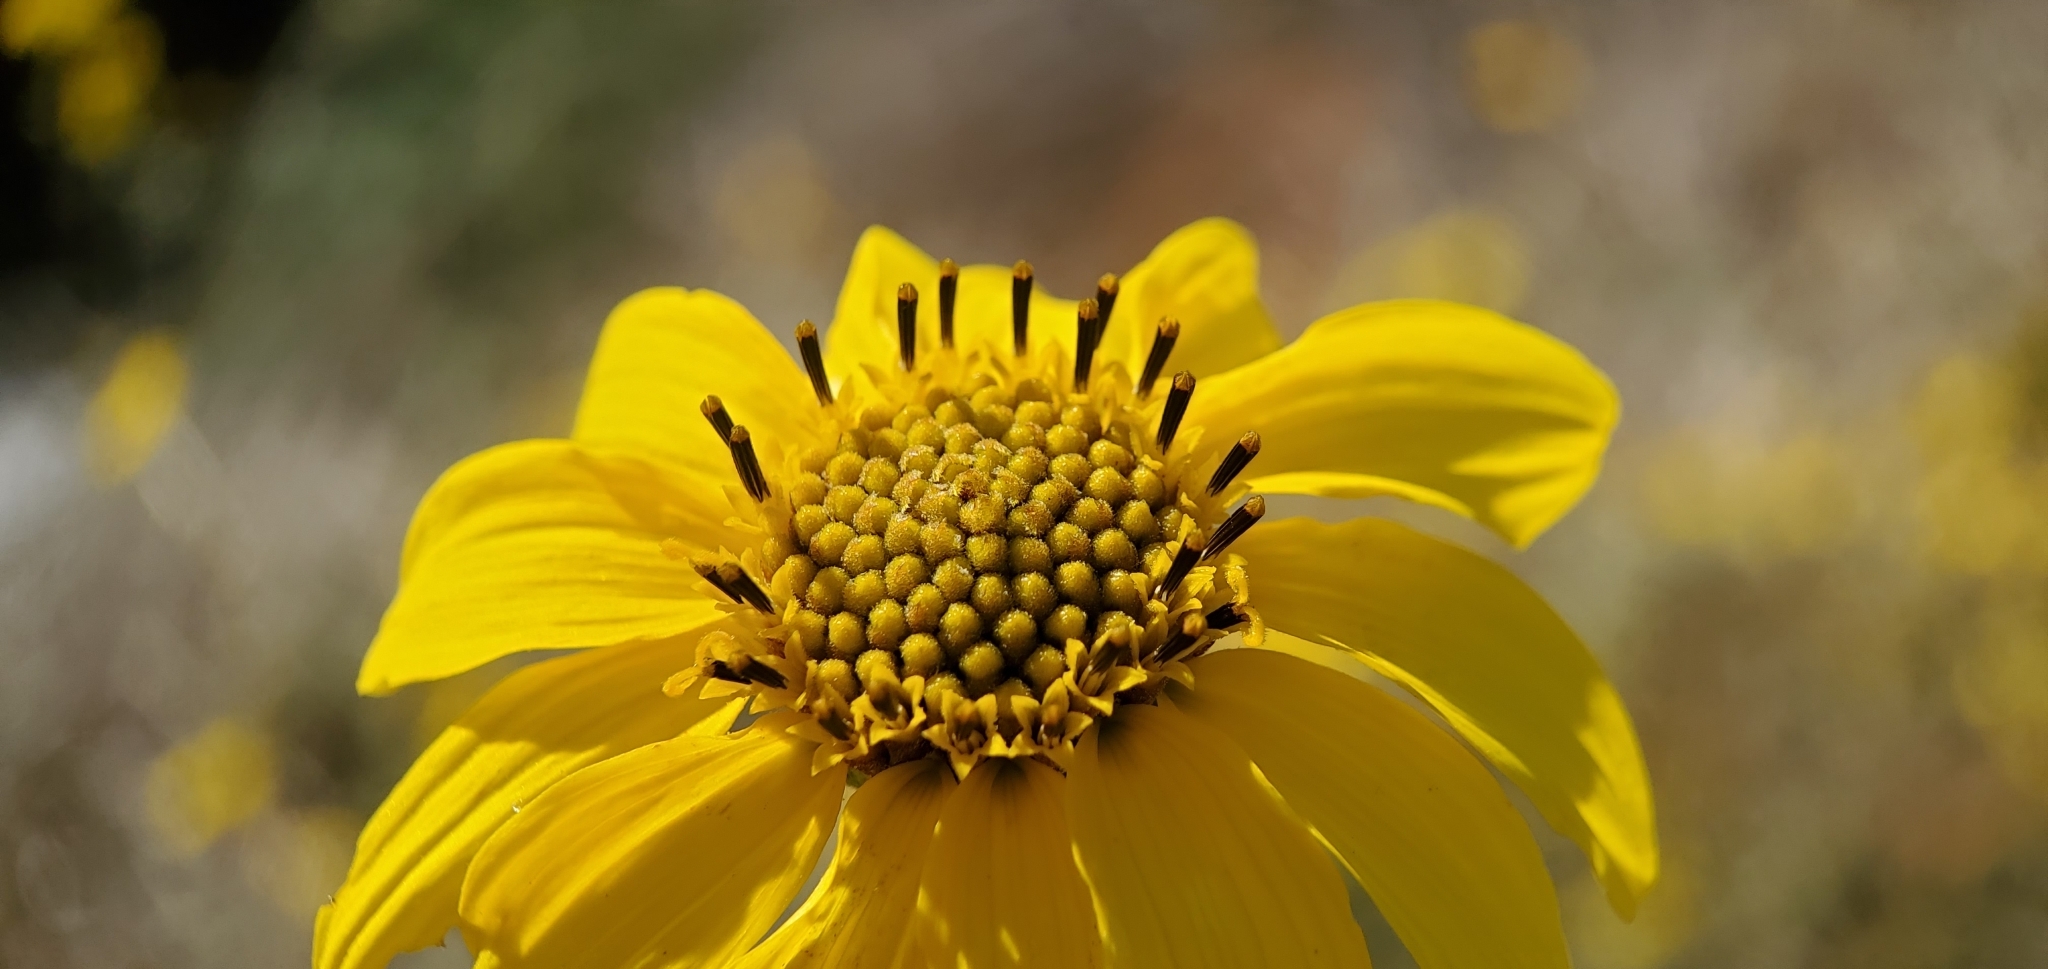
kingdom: Plantae
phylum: Tracheophyta
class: Magnoliopsida
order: Asterales
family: Asteraceae
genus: Helianthus
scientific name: Helianthus gracilentus
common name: Slender sunflower
